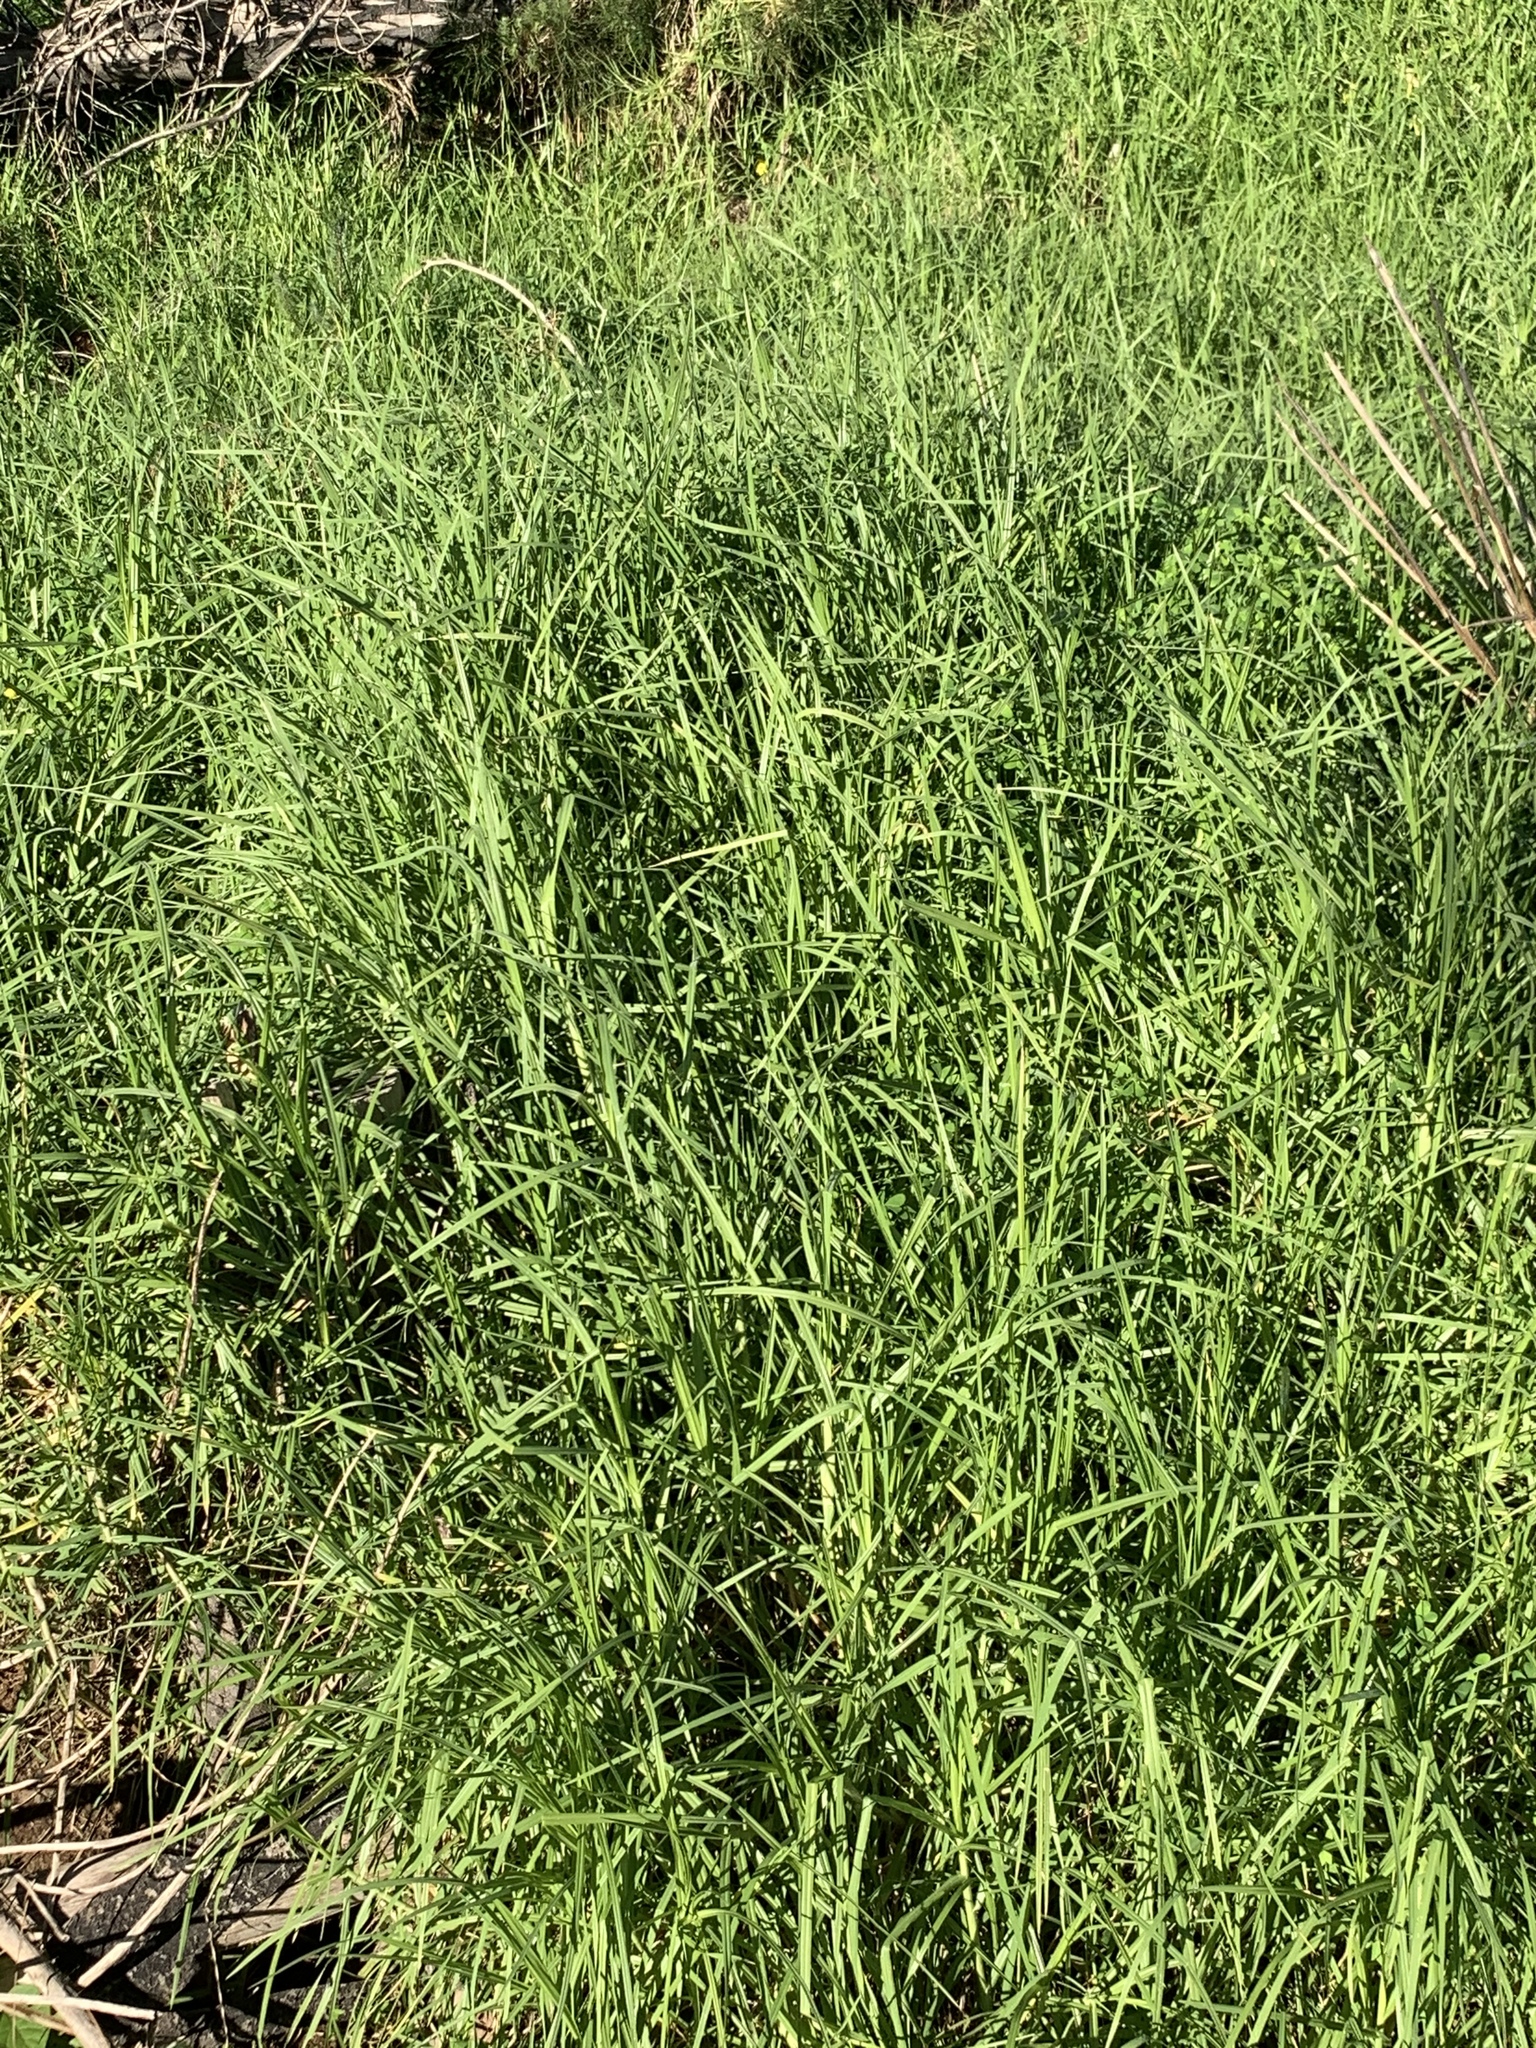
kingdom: Plantae
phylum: Tracheophyta
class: Liliopsida
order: Poales
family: Poaceae
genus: Cenchrus
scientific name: Cenchrus clandestinus
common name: Kikuyugrass
